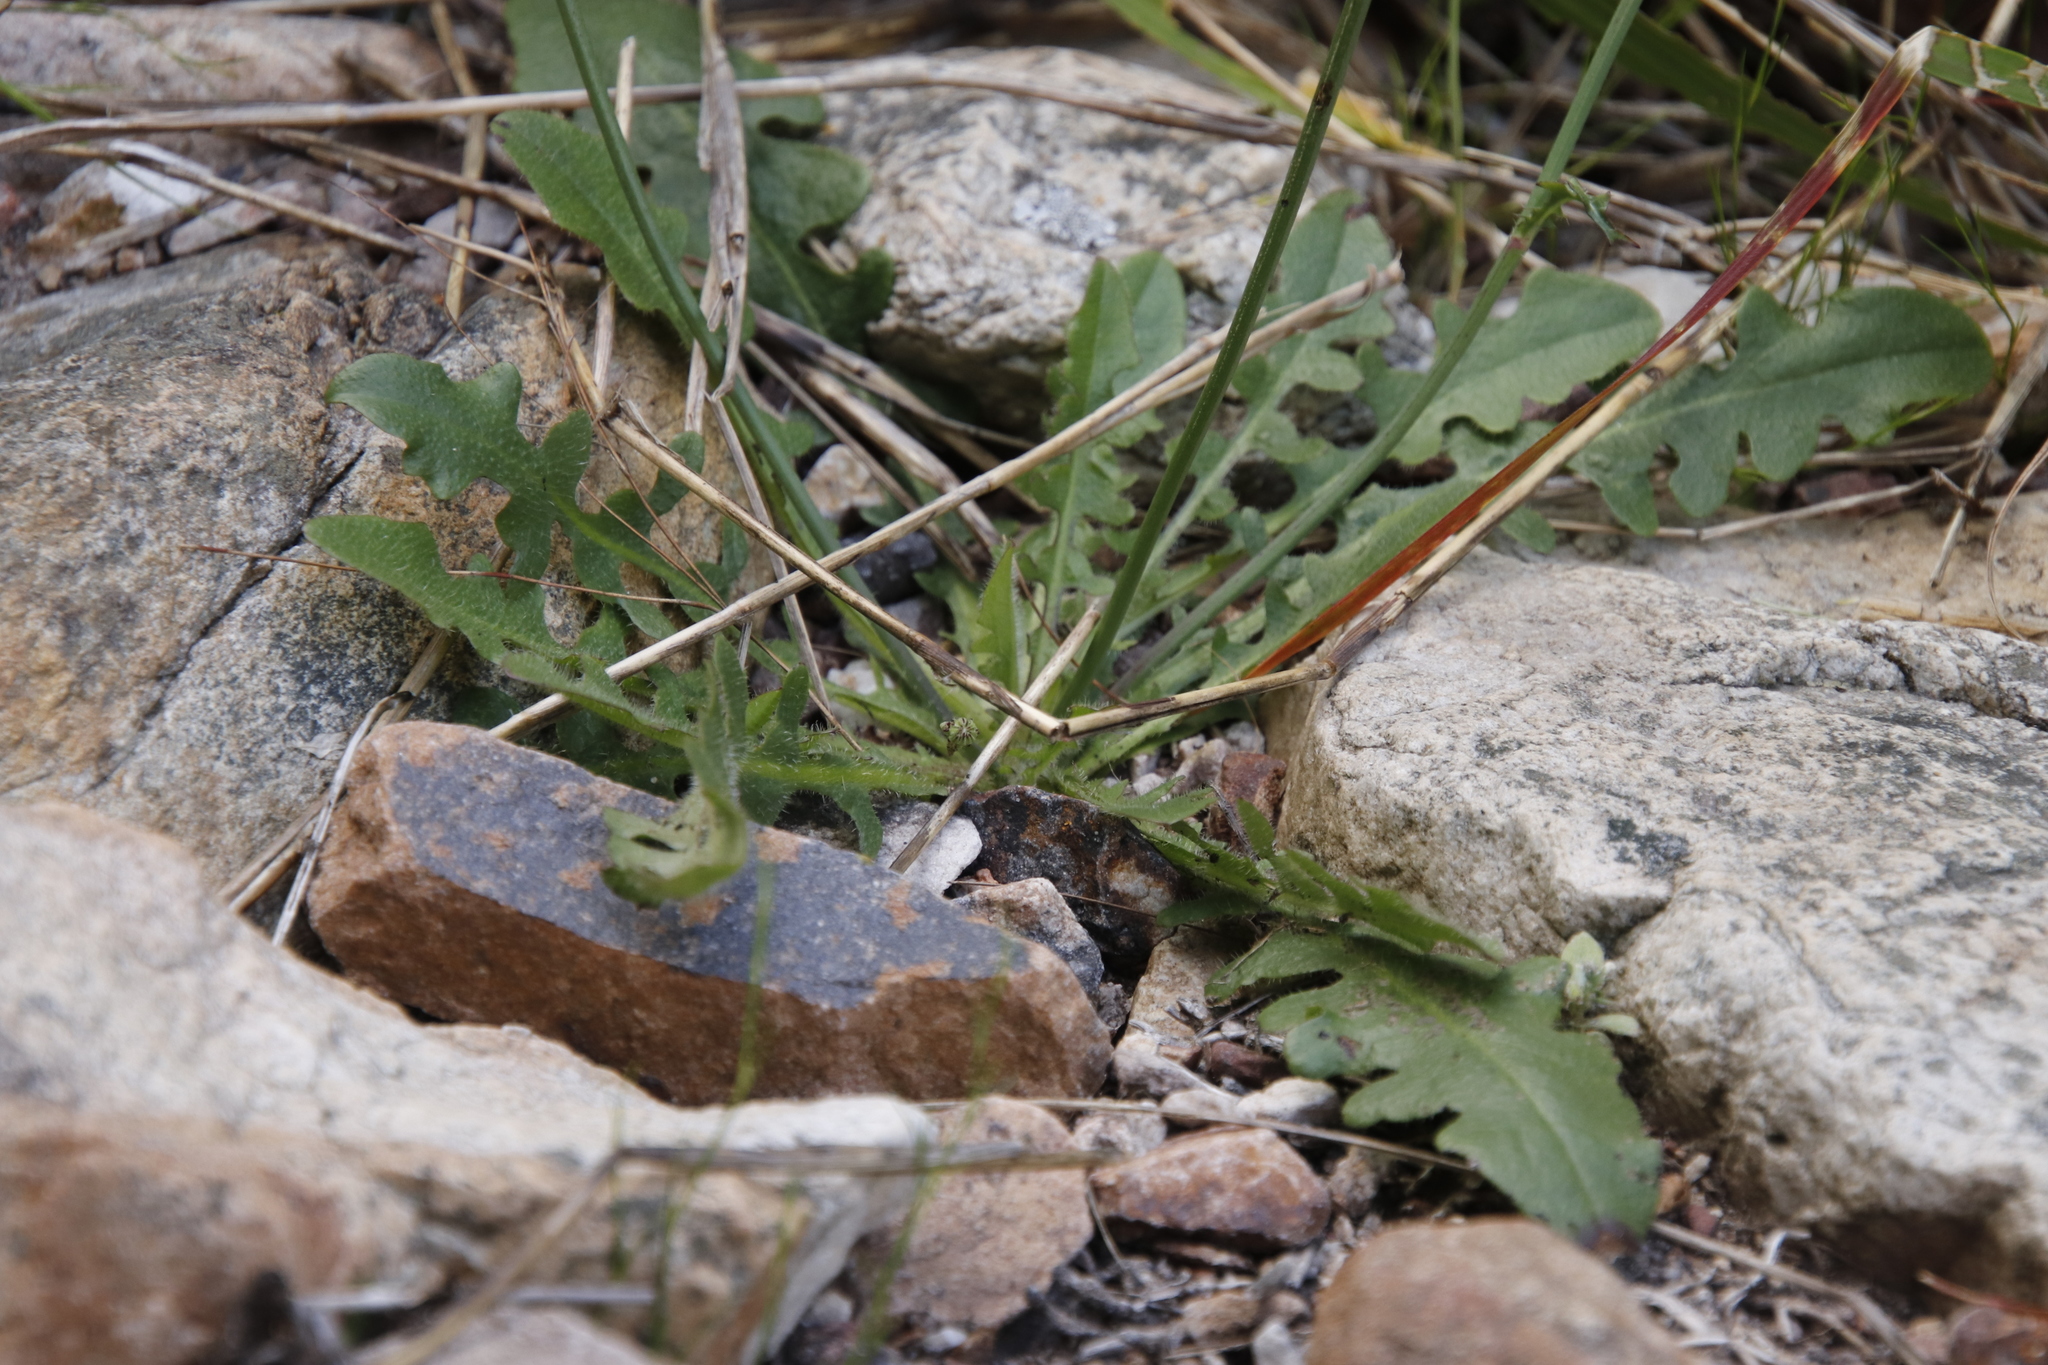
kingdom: Plantae
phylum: Tracheophyta
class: Magnoliopsida
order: Asterales
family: Asteraceae
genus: Hypochaeris
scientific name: Hypochaeris radicata
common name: Flatweed
